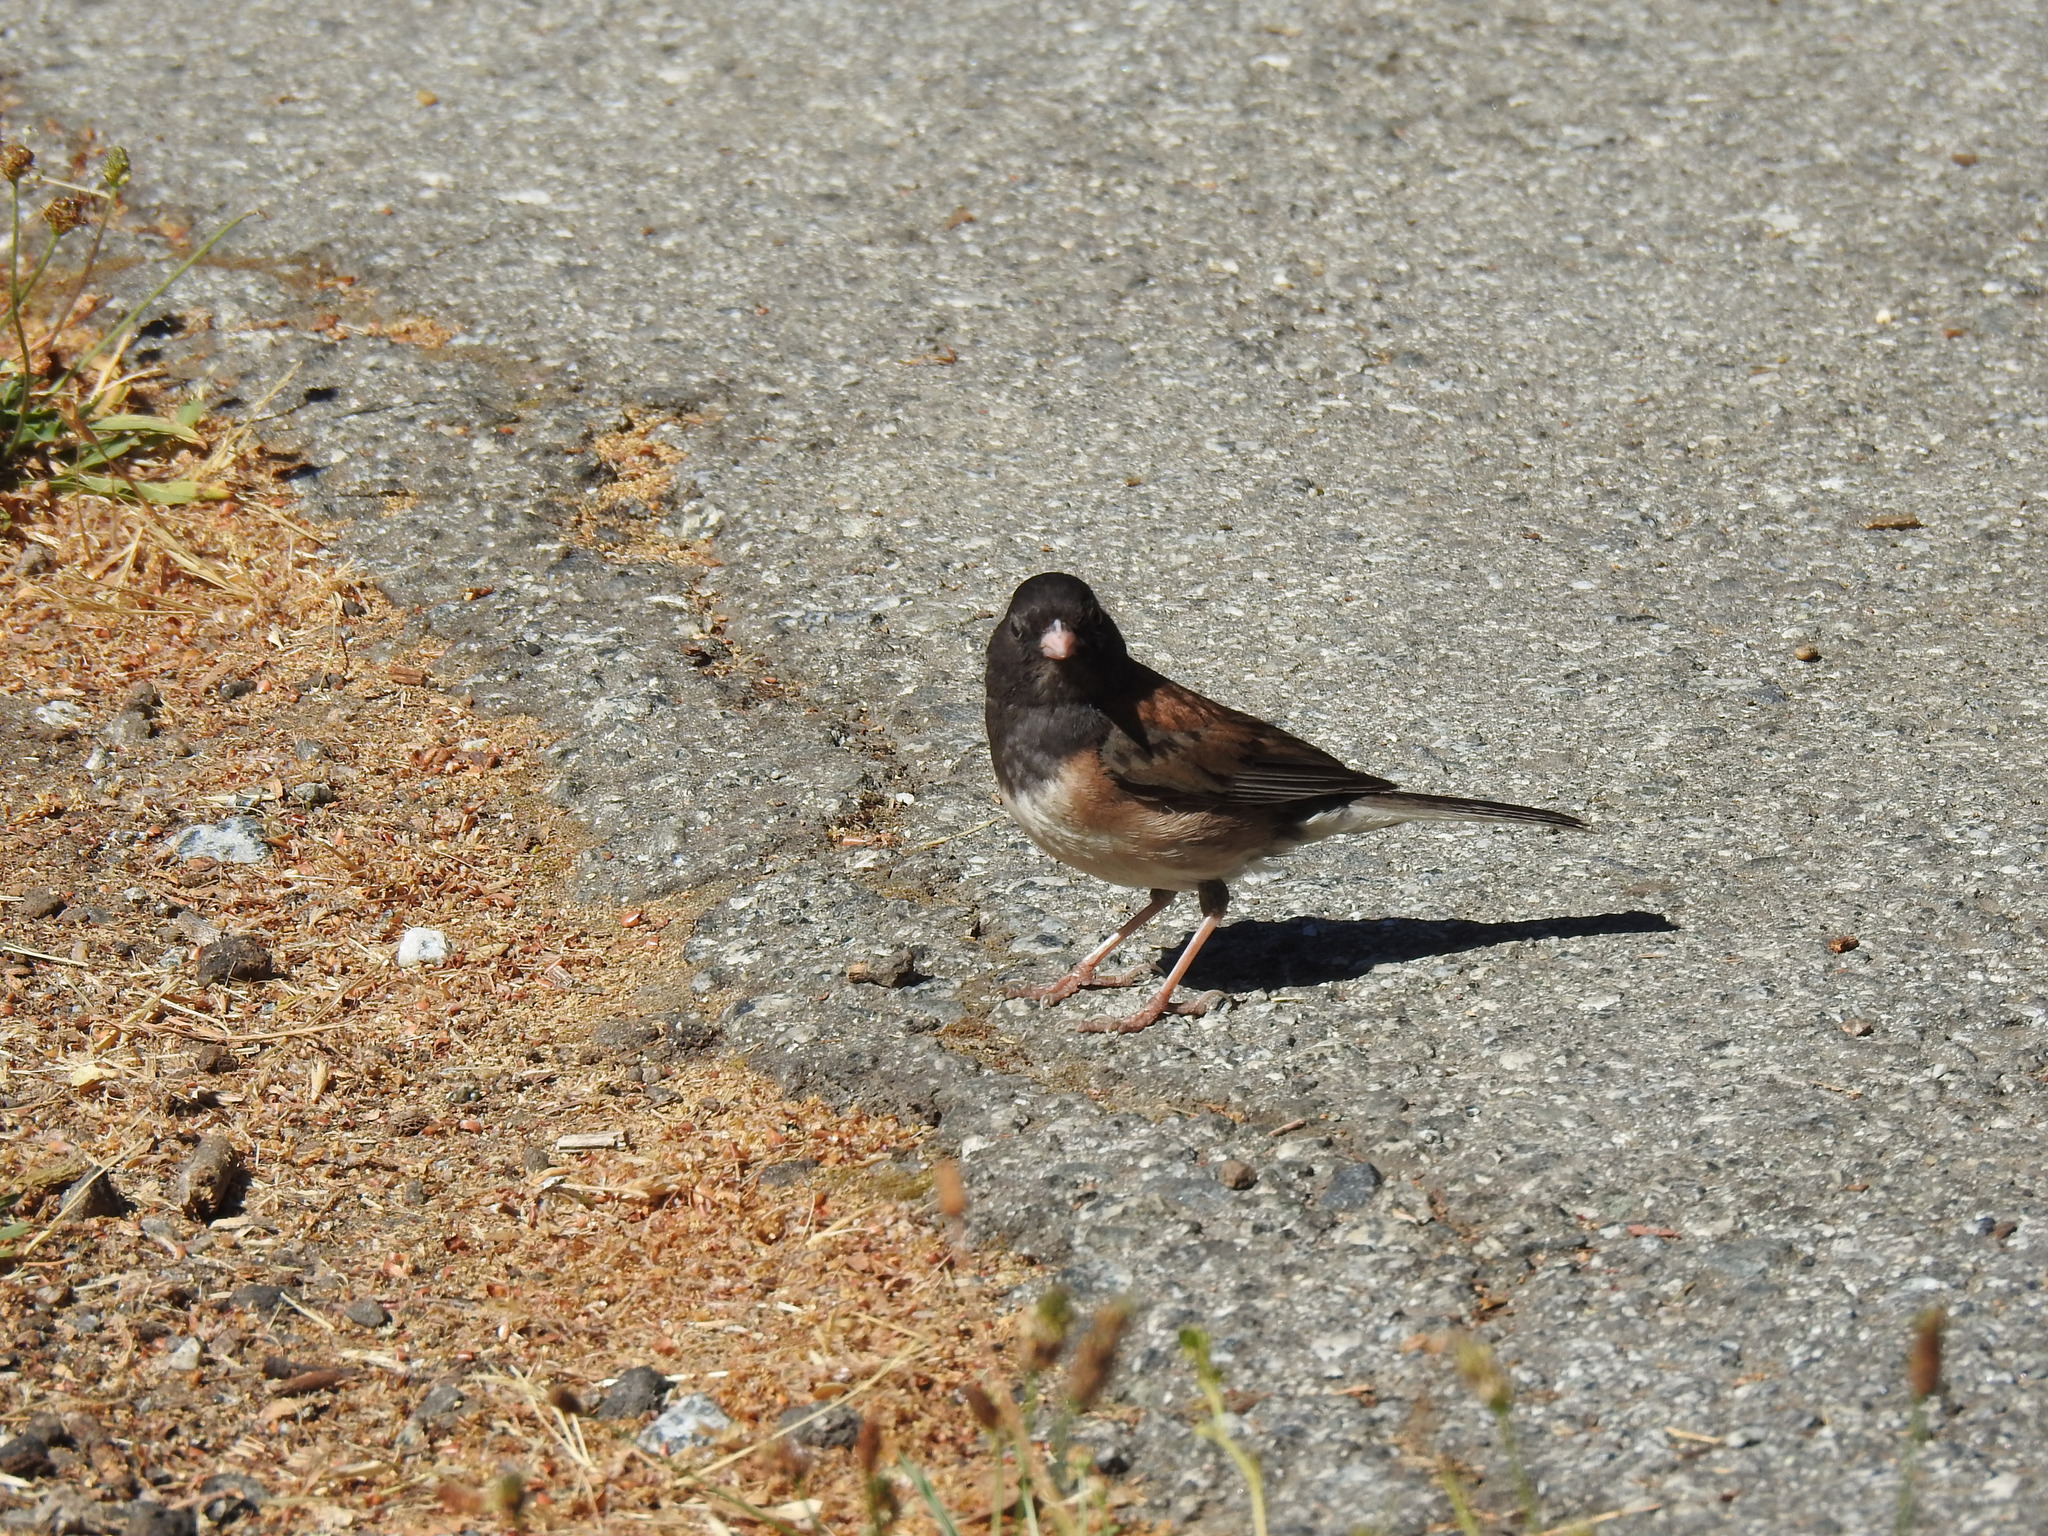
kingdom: Animalia
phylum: Chordata
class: Aves
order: Passeriformes
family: Passerellidae
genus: Junco
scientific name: Junco hyemalis
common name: Dark-eyed junco
